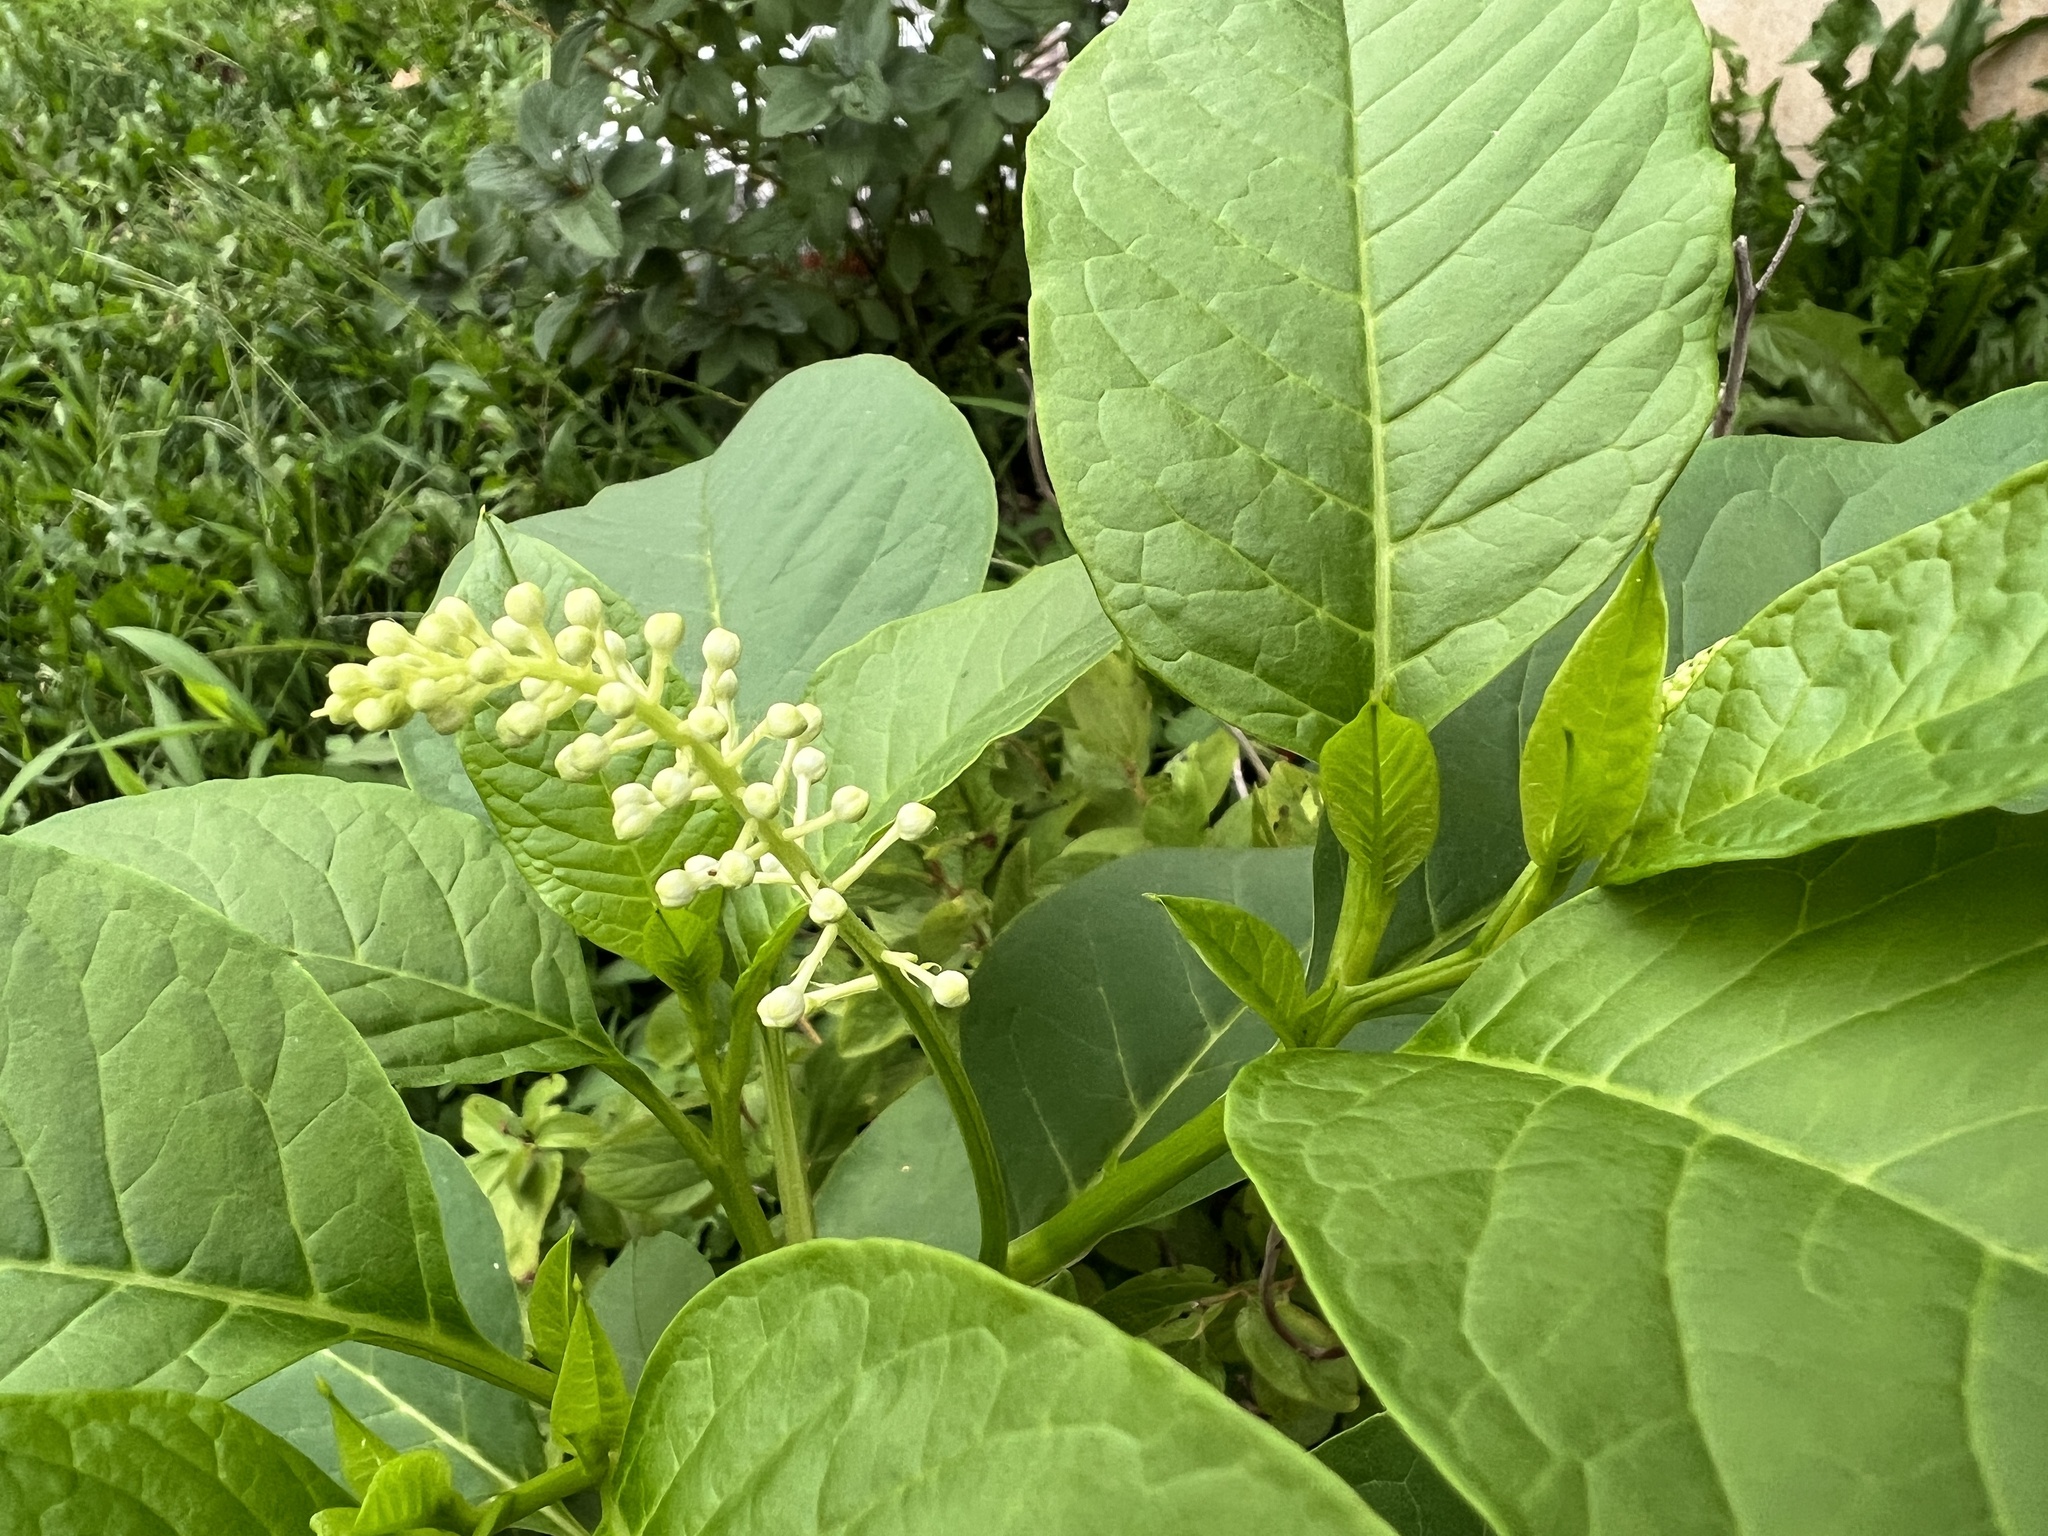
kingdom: Plantae
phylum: Tracheophyta
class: Magnoliopsida
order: Caryophyllales
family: Phytolaccaceae
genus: Phytolacca
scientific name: Phytolacca americana
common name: American pokeweed
